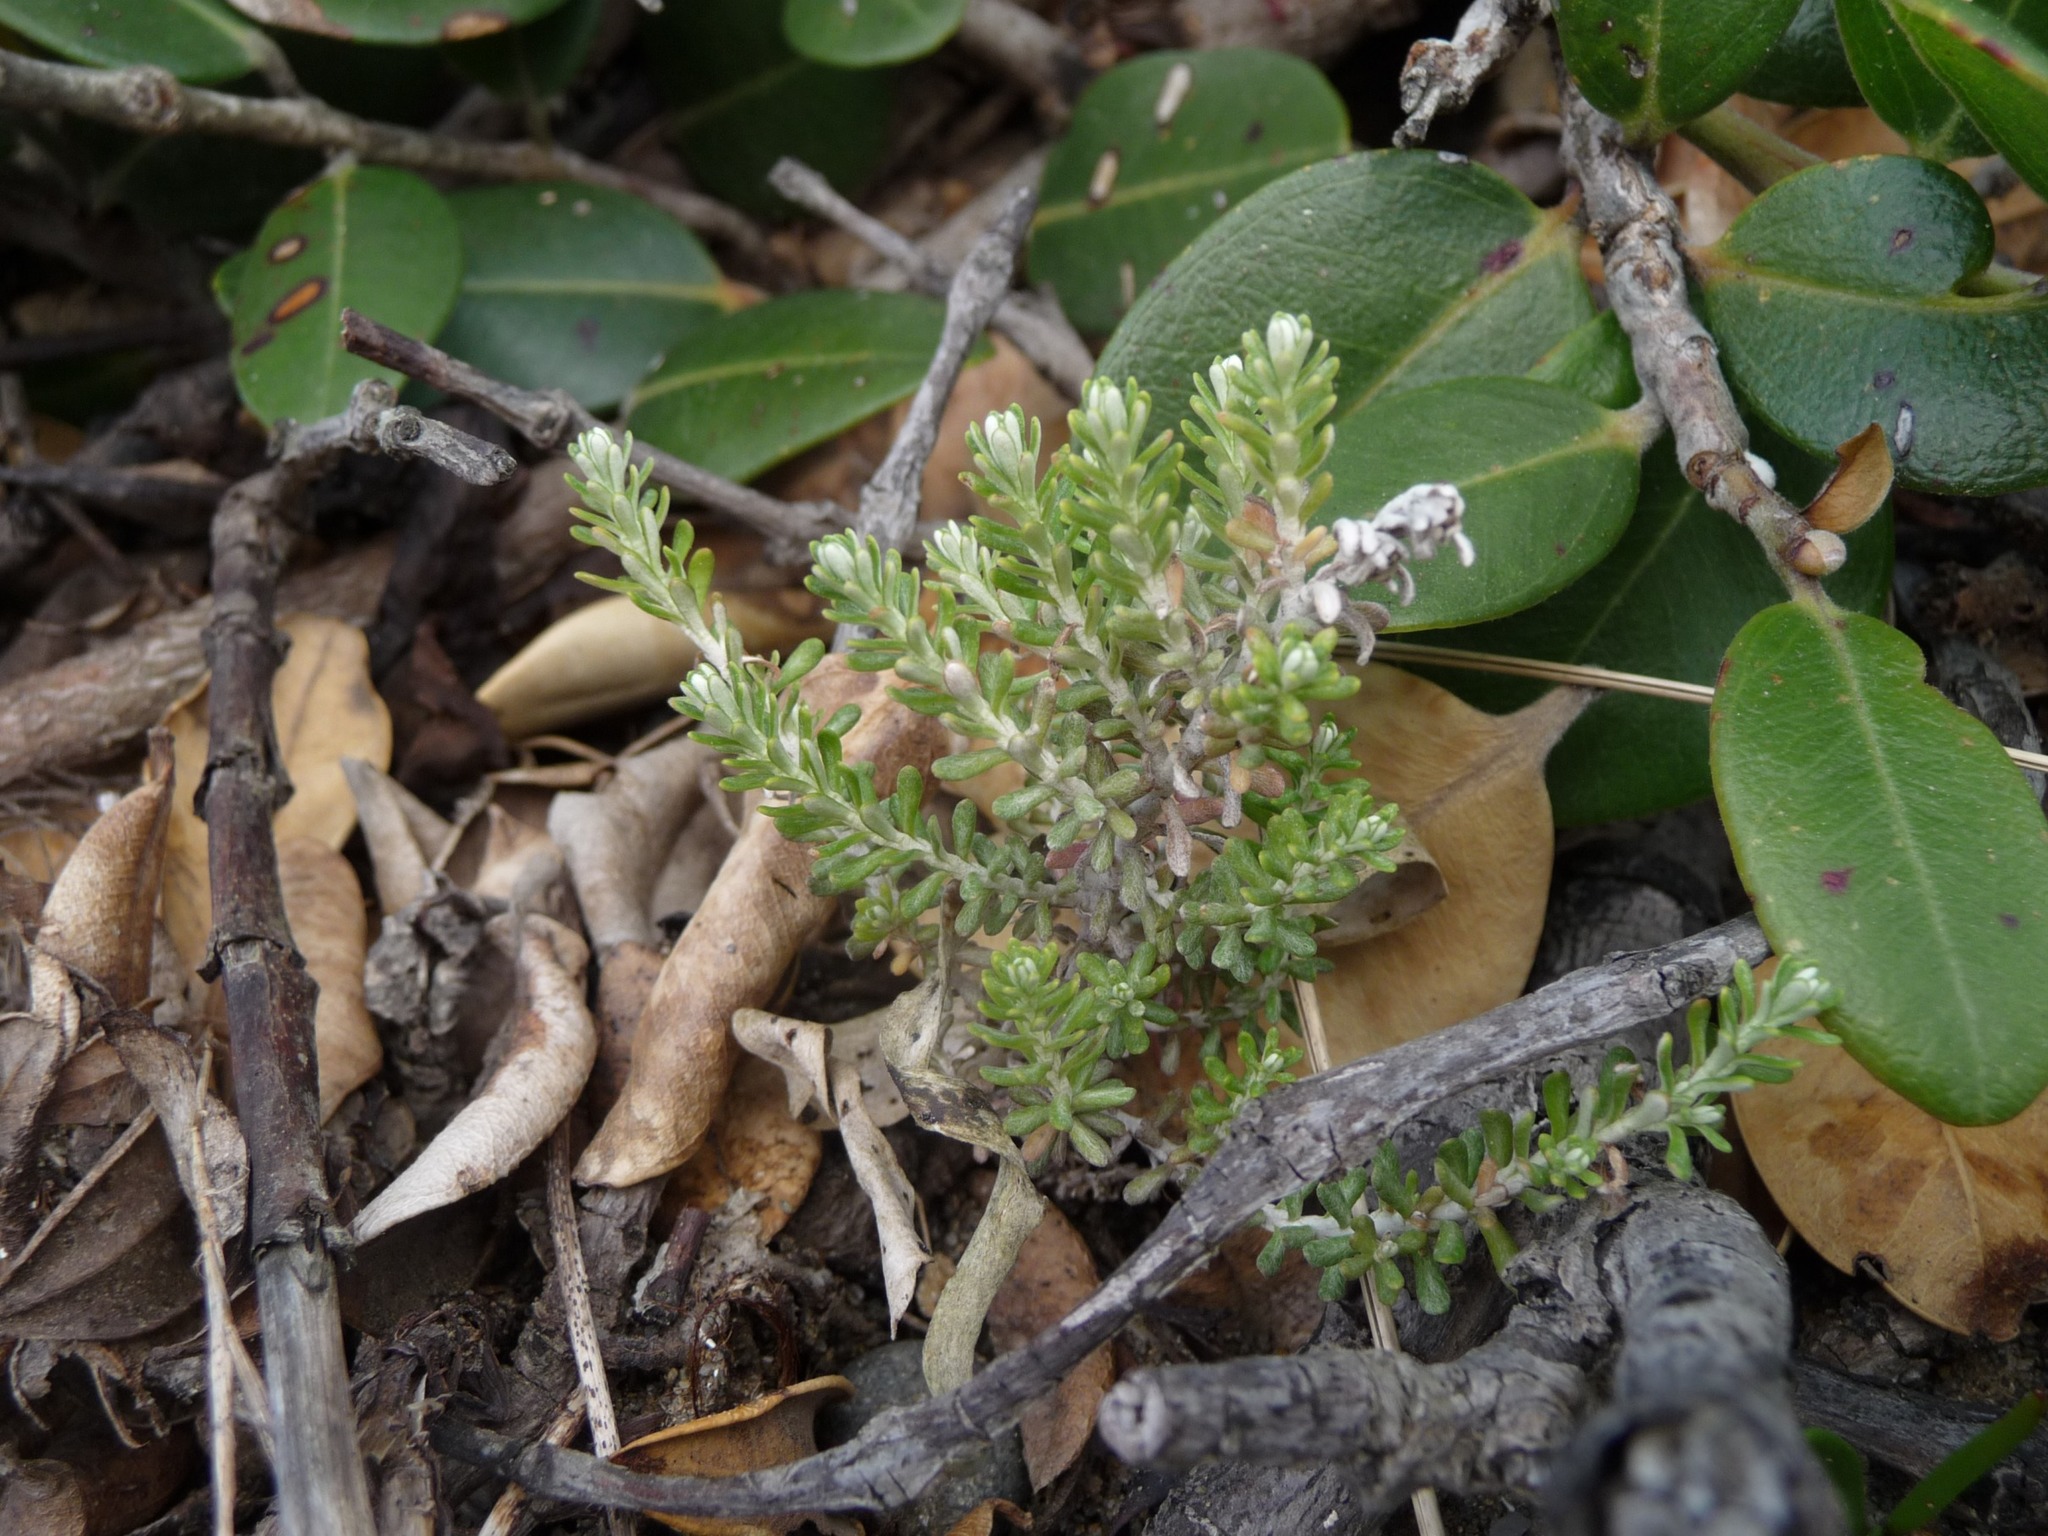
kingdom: Plantae
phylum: Tracheophyta
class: Magnoliopsida
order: Asterales
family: Asteraceae
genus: Ozothamnus
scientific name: Ozothamnus leptophyllus
